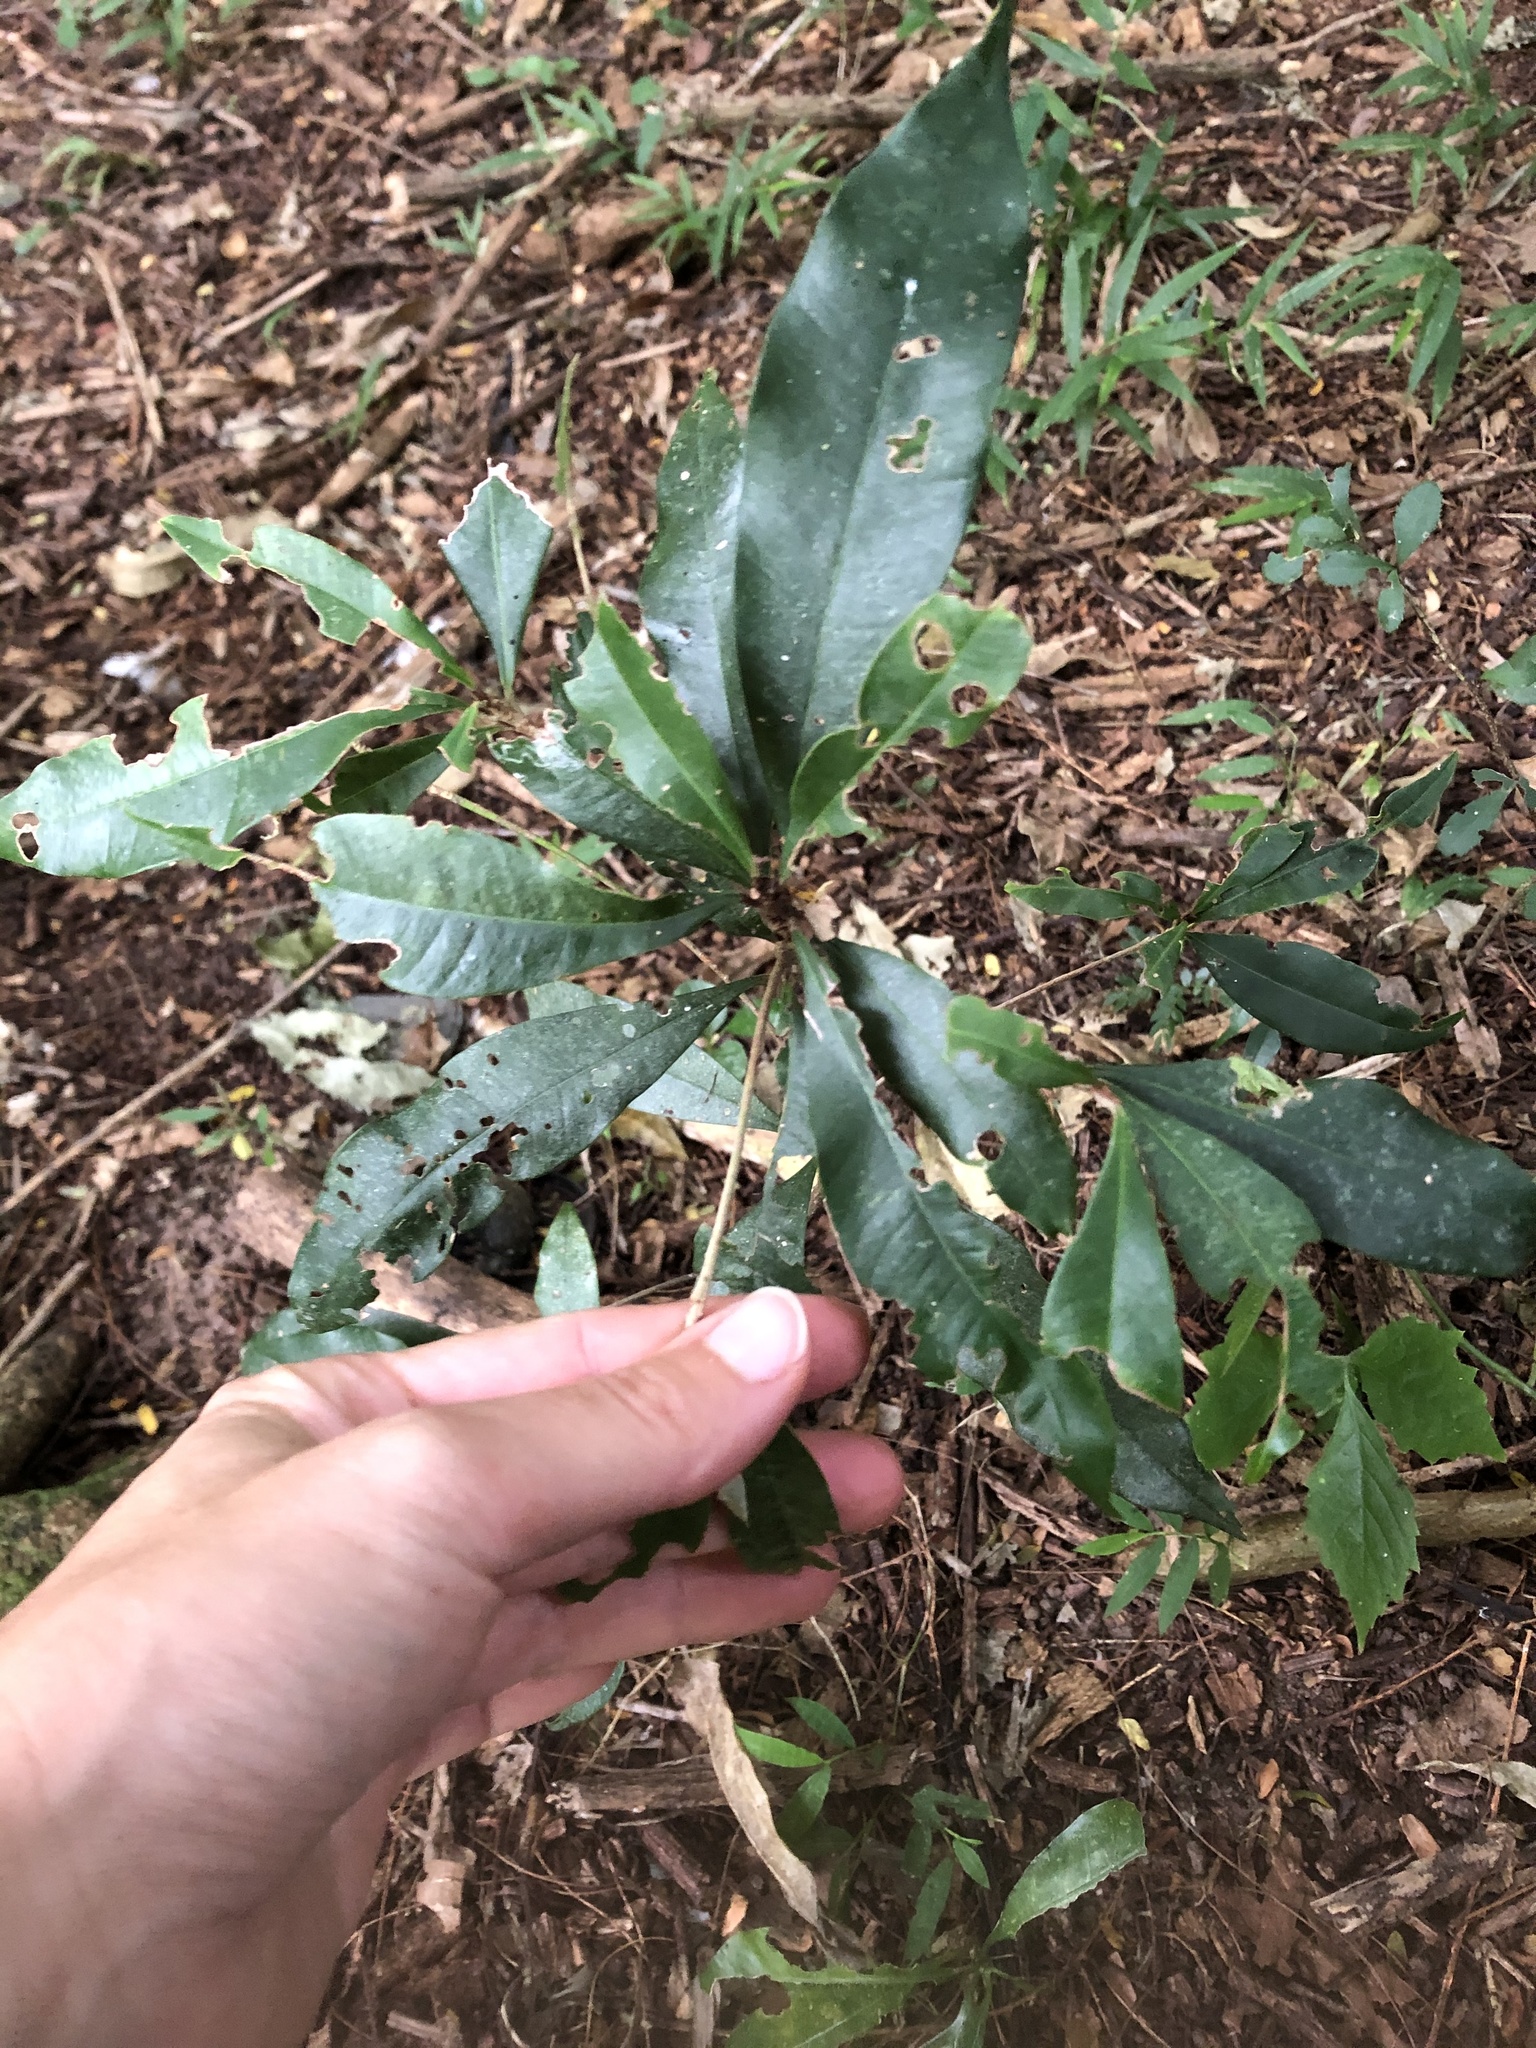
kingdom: Plantae
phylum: Tracheophyta
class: Magnoliopsida
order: Ericales
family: Sapotaceae
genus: Englerophytum
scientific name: Englerophytum natalense
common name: Silver-leaved milkplum
